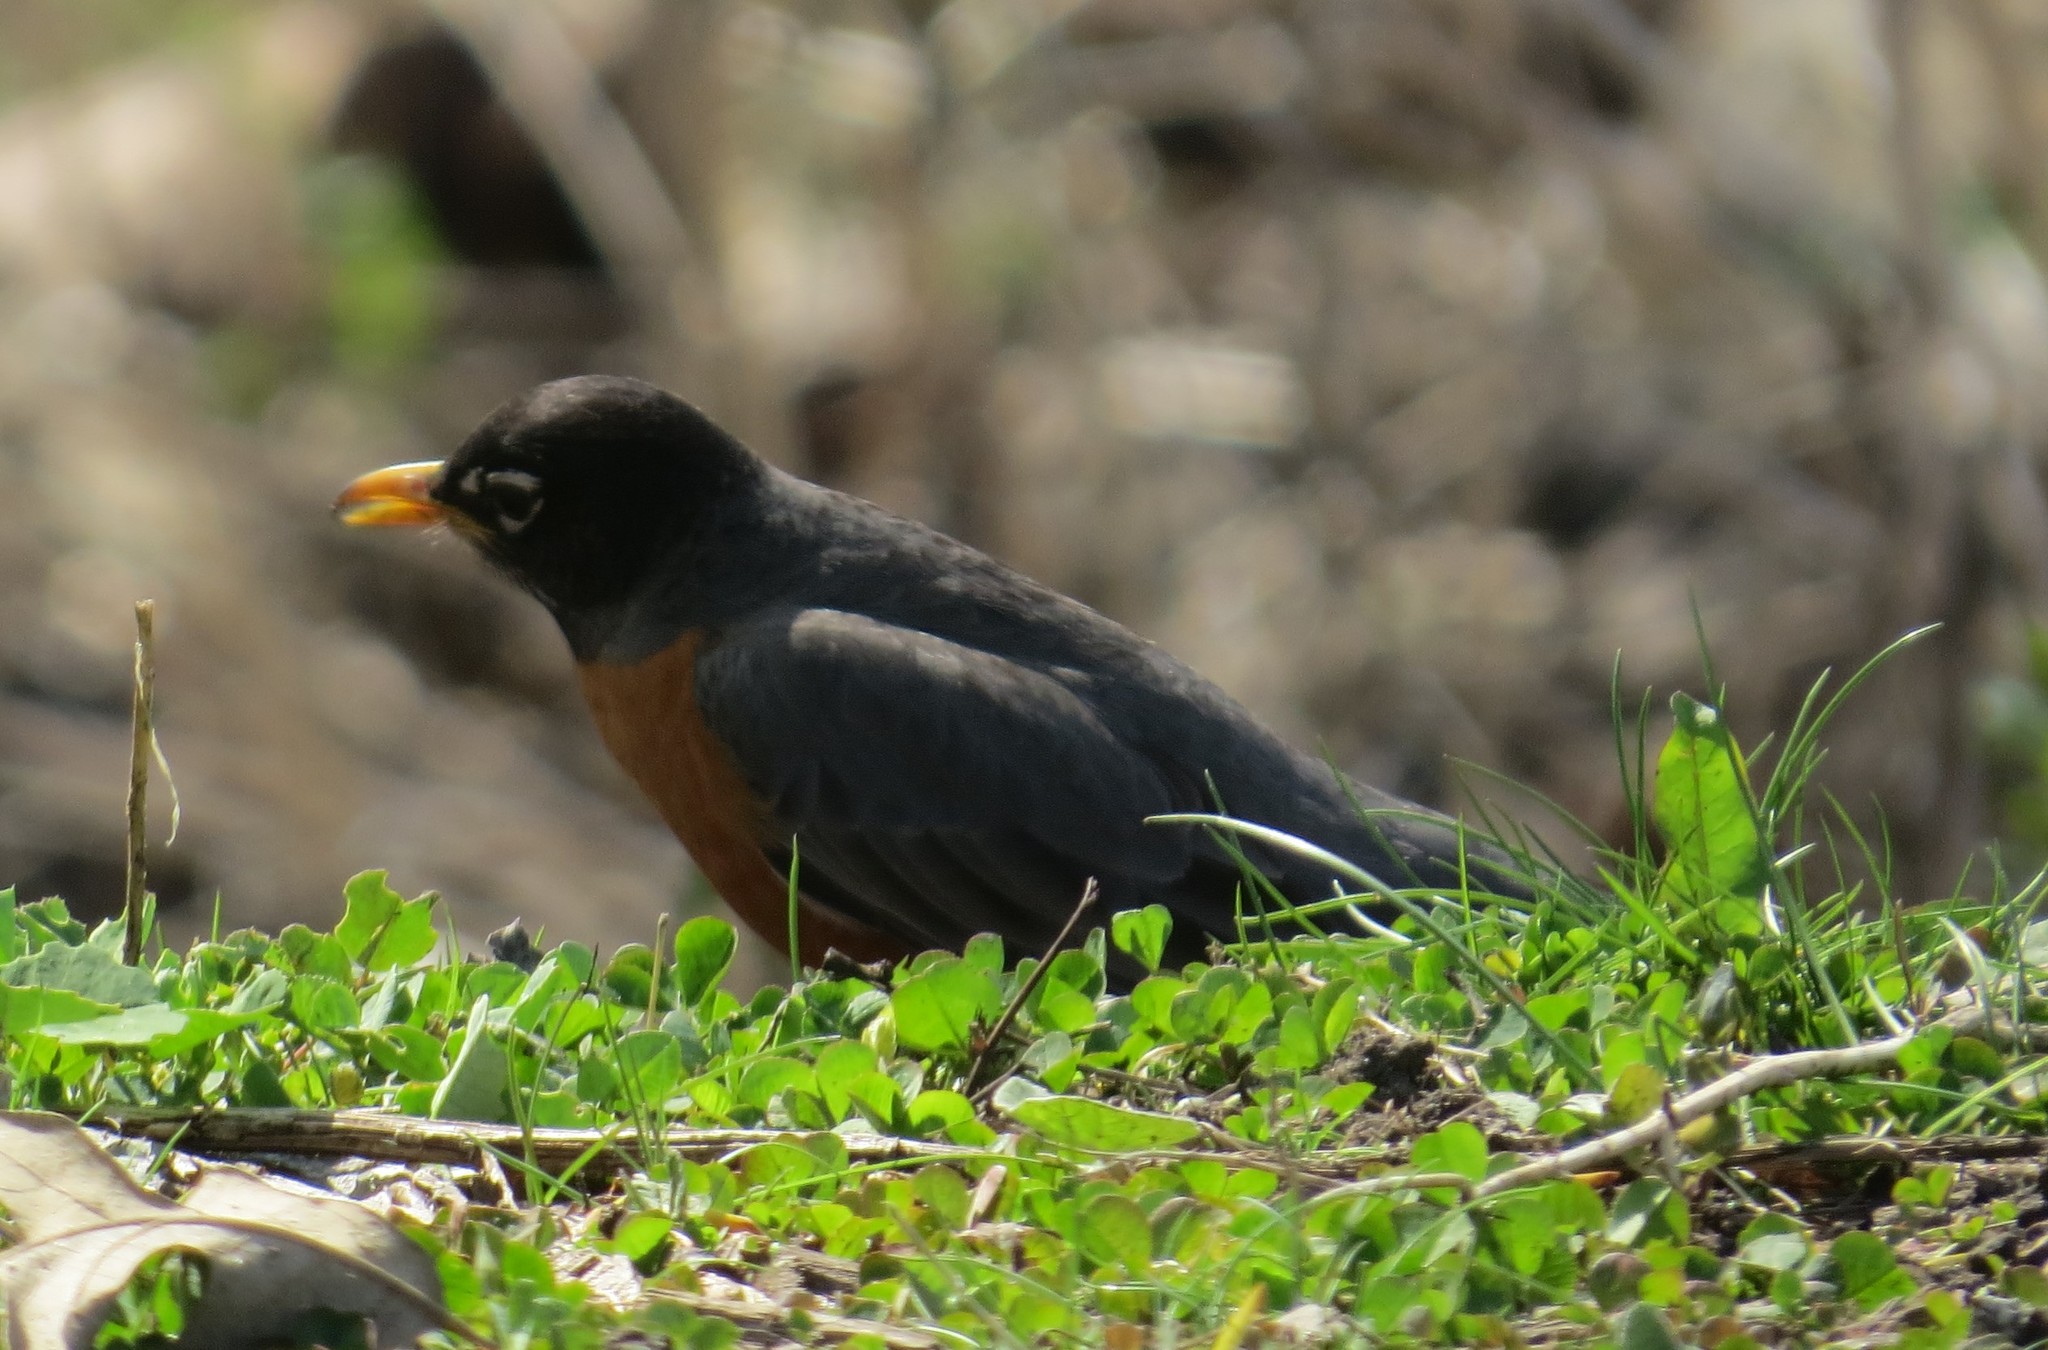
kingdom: Animalia
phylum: Chordata
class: Aves
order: Passeriformes
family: Turdidae
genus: Turdus
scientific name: Turdus migratorius
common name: American robin
